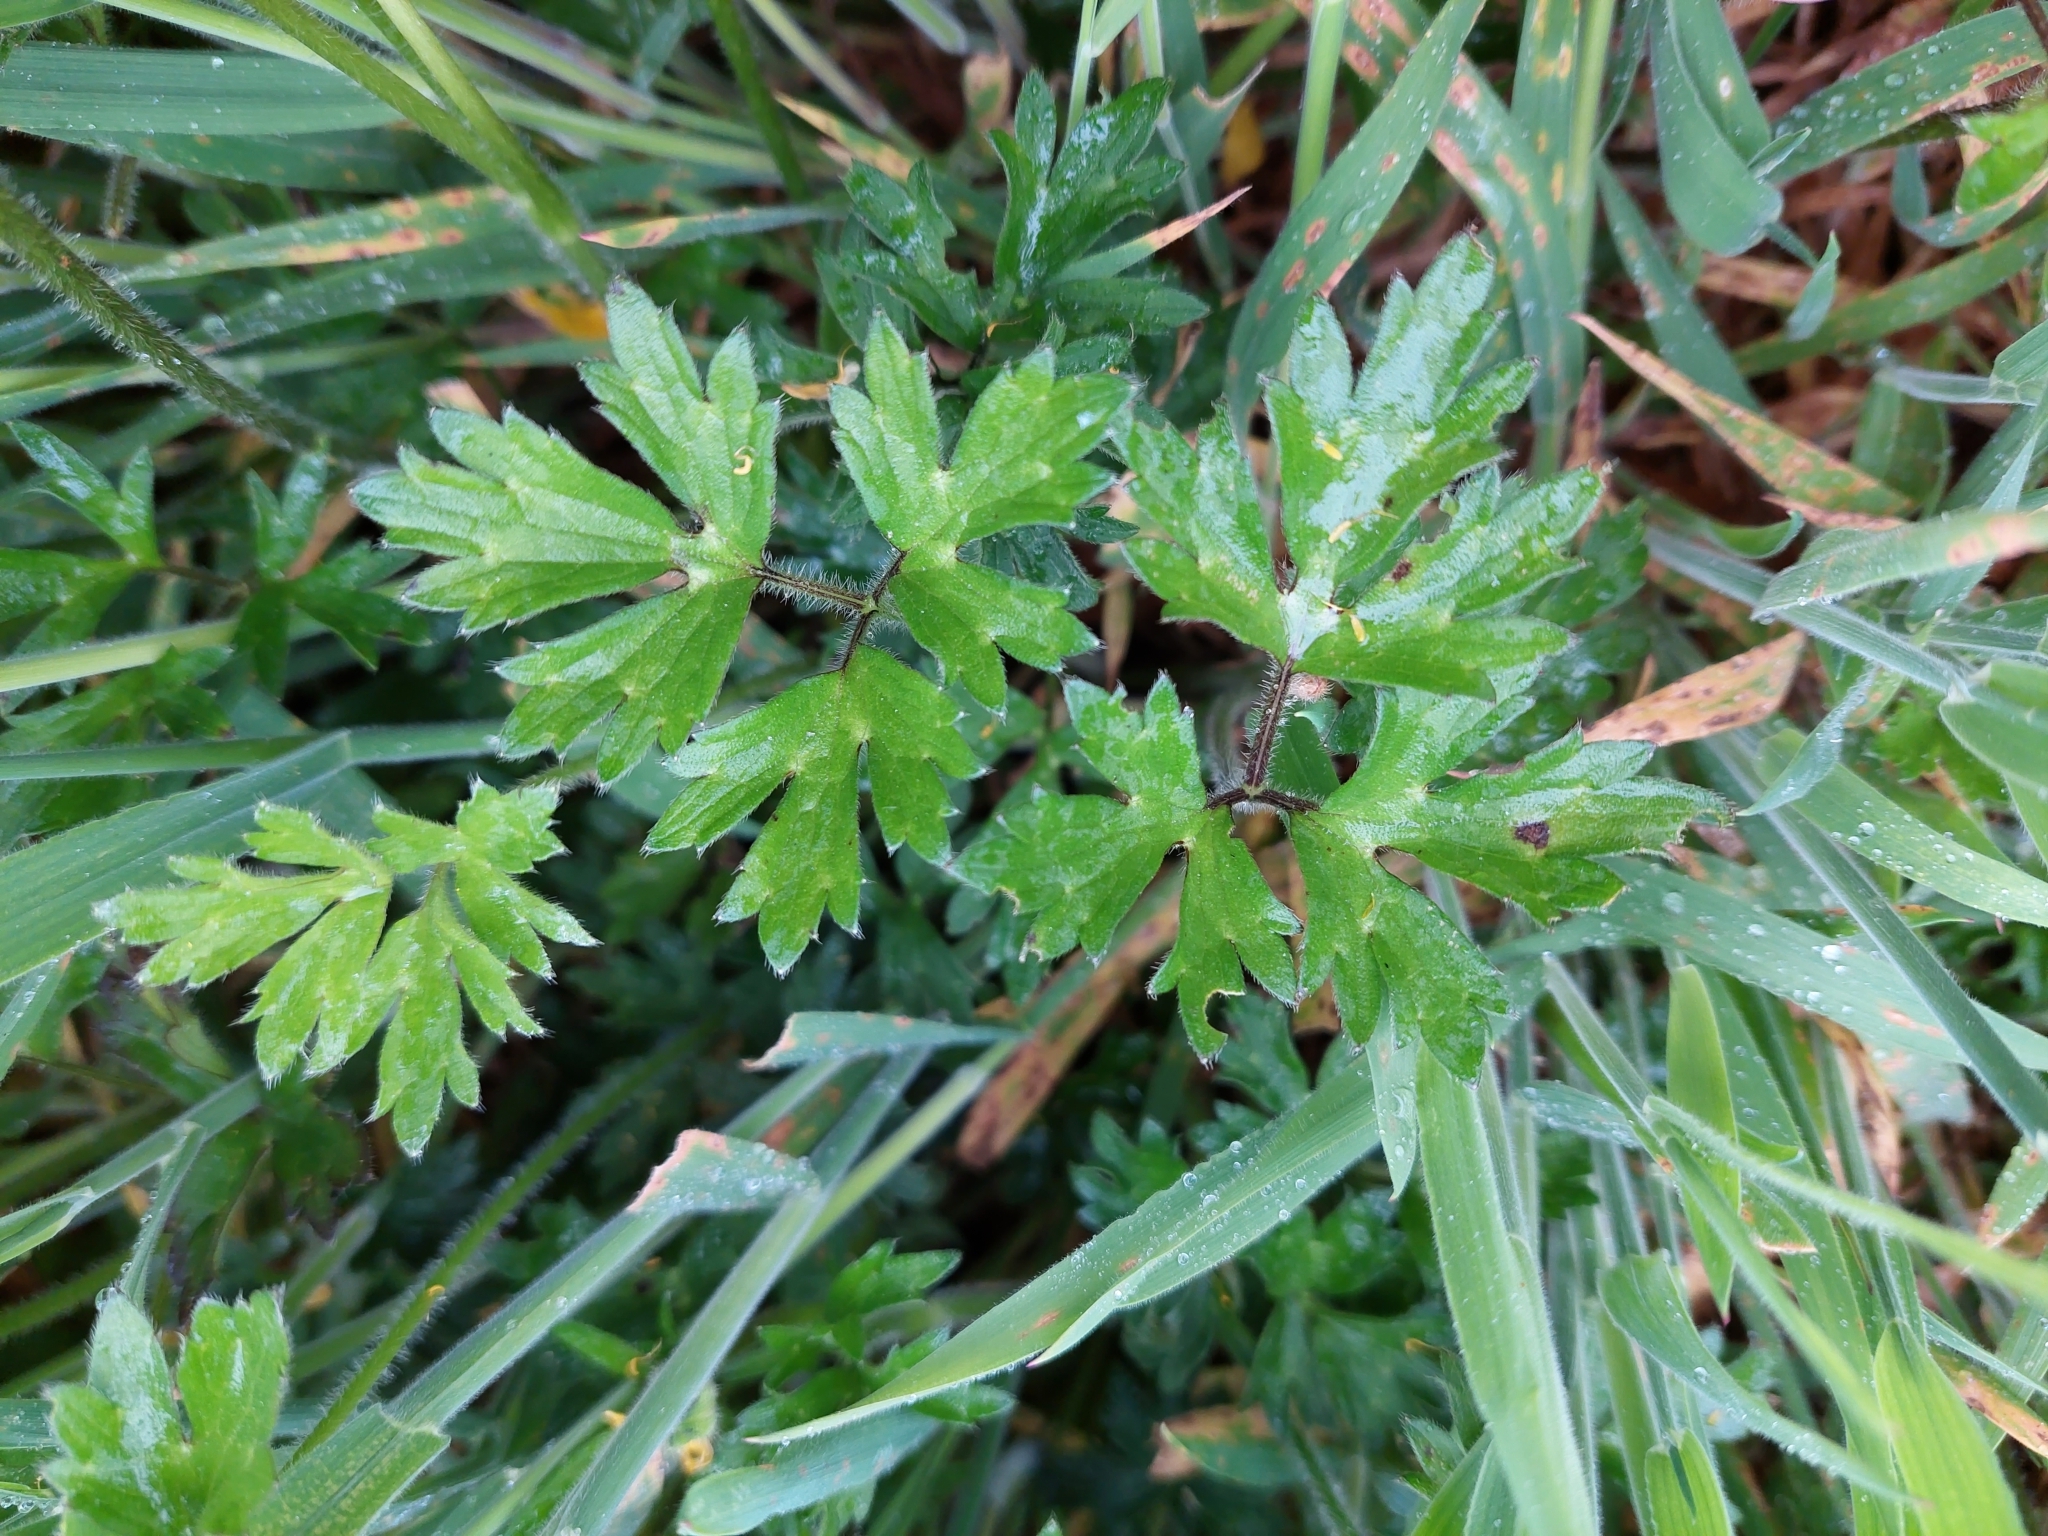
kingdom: Plantae
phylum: Tracheophyta
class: Magnoliopsida
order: Ranunculales
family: Ranunculaceae
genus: Ranunculus
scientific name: Ranunculus repens
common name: Creeping buttercup
